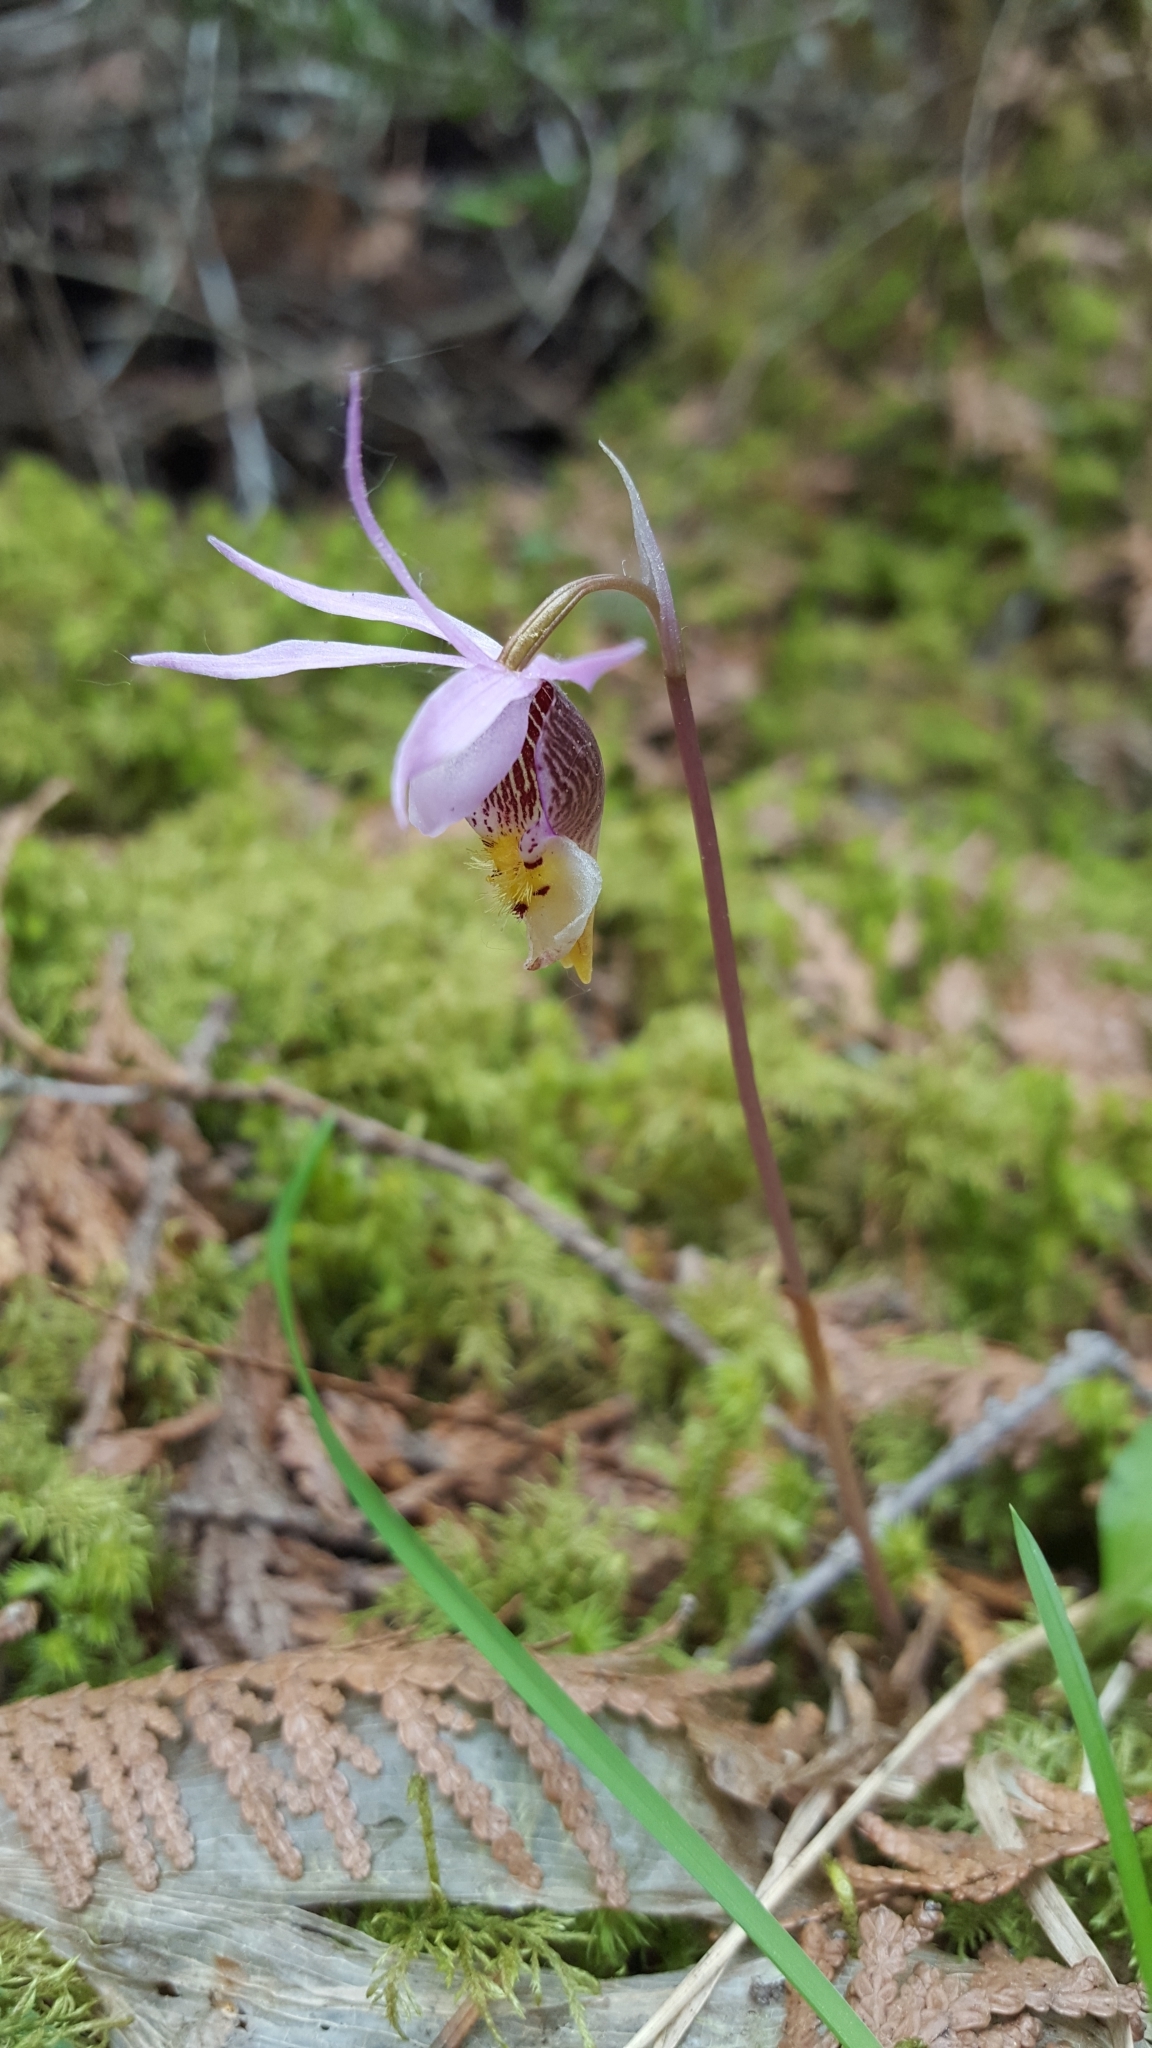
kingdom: Plantae
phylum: Tracheophyta
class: Liliopsida
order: Asparagales
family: Orchidaceae
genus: Calypso
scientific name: Calypso bulbosa
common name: Calypso
